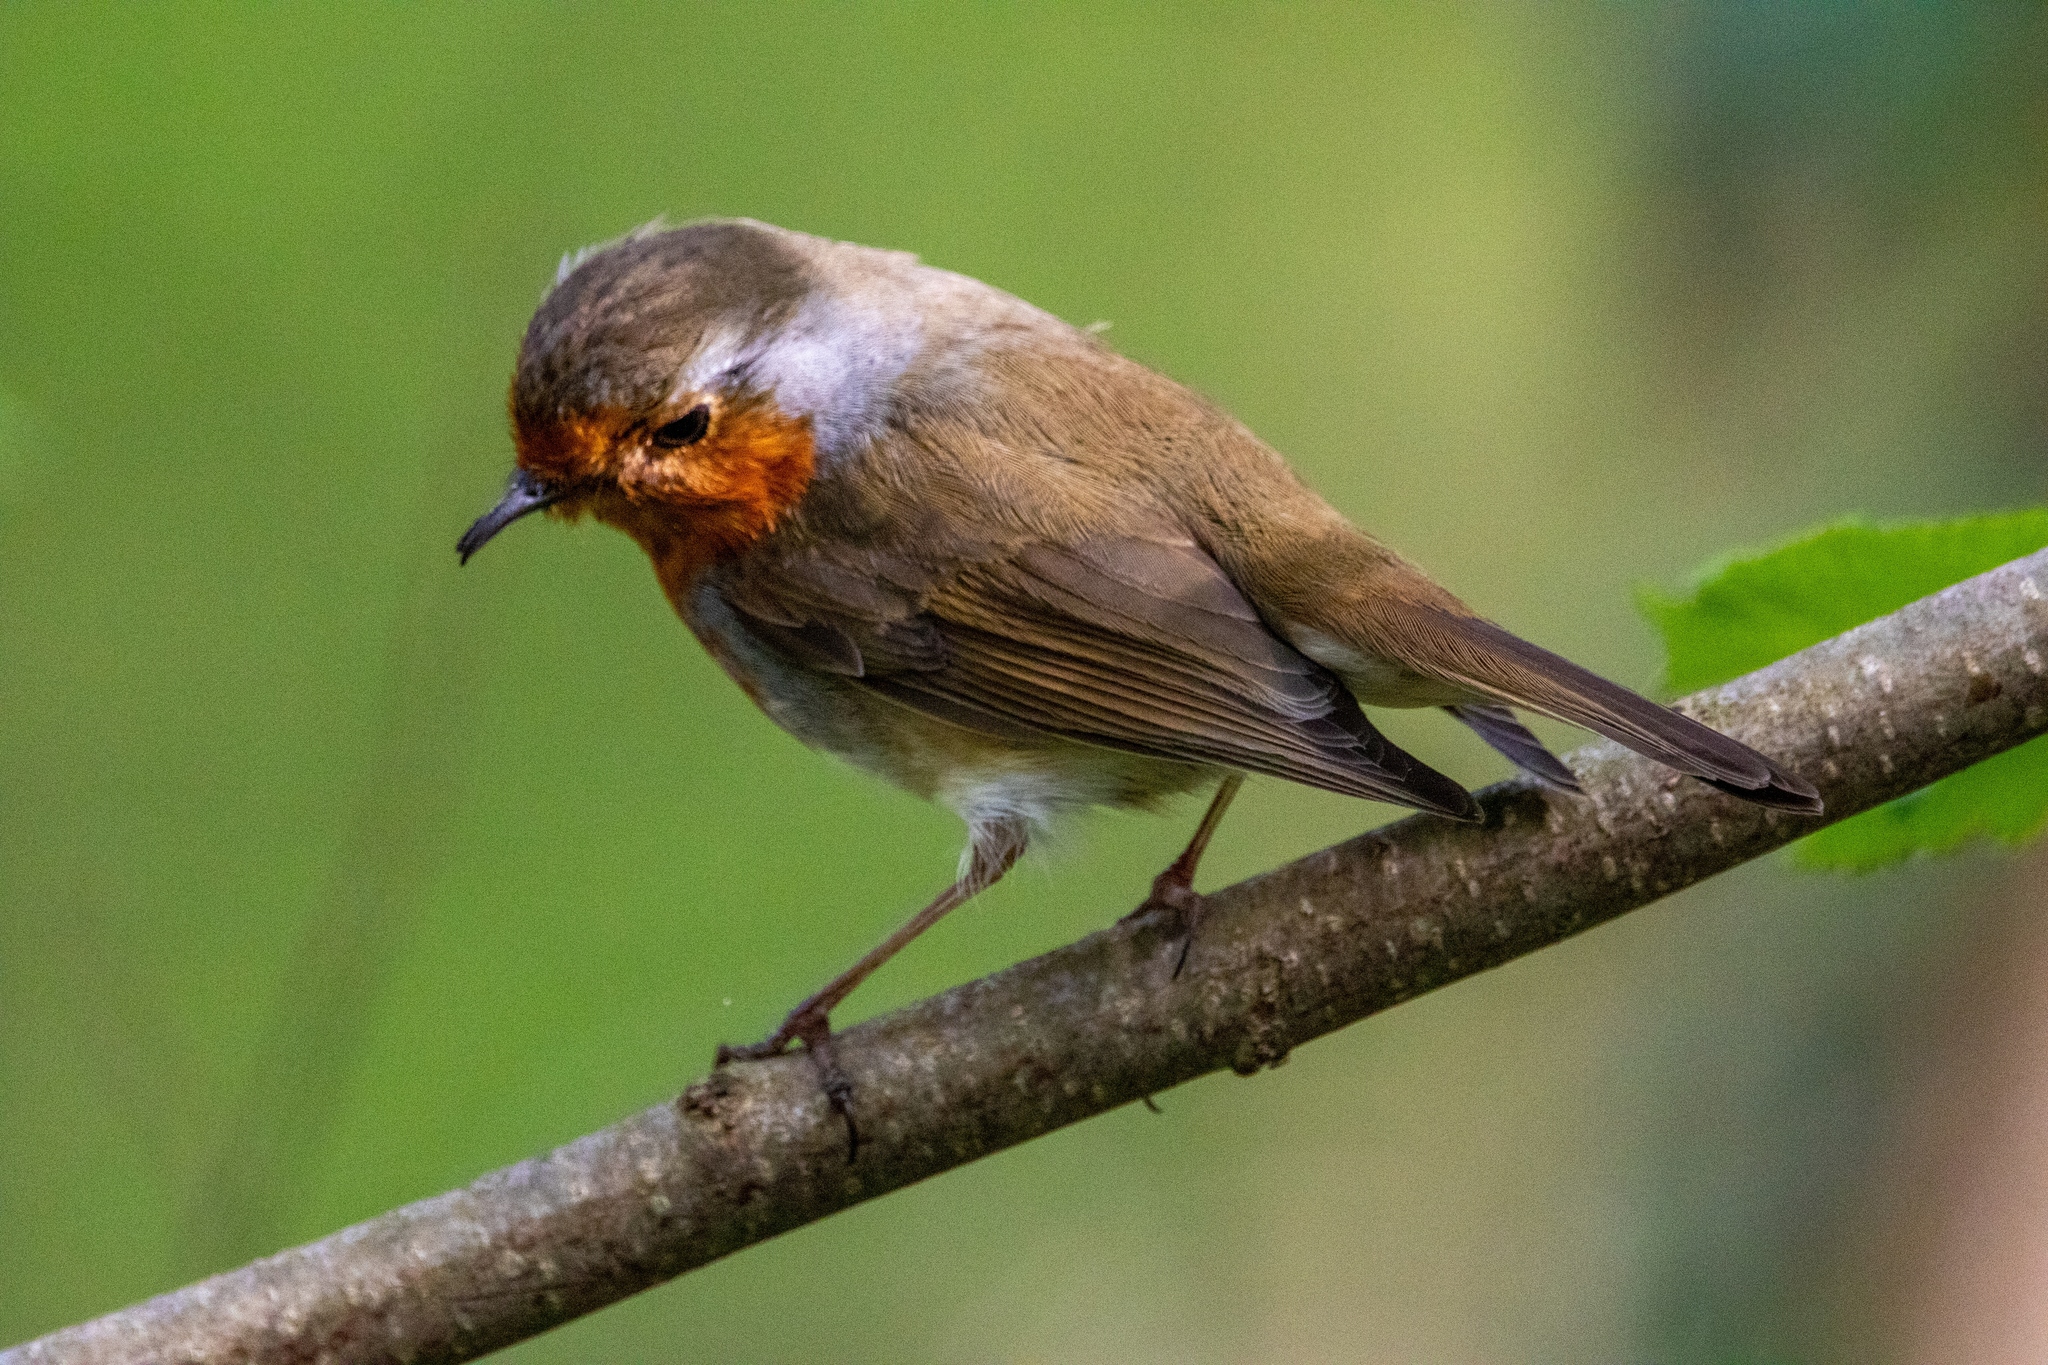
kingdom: Animalia
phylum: Chordata
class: Aves
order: Passeriformes
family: Muscicapidae
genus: Erithacus
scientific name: Erithacus rubecula
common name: European robin
